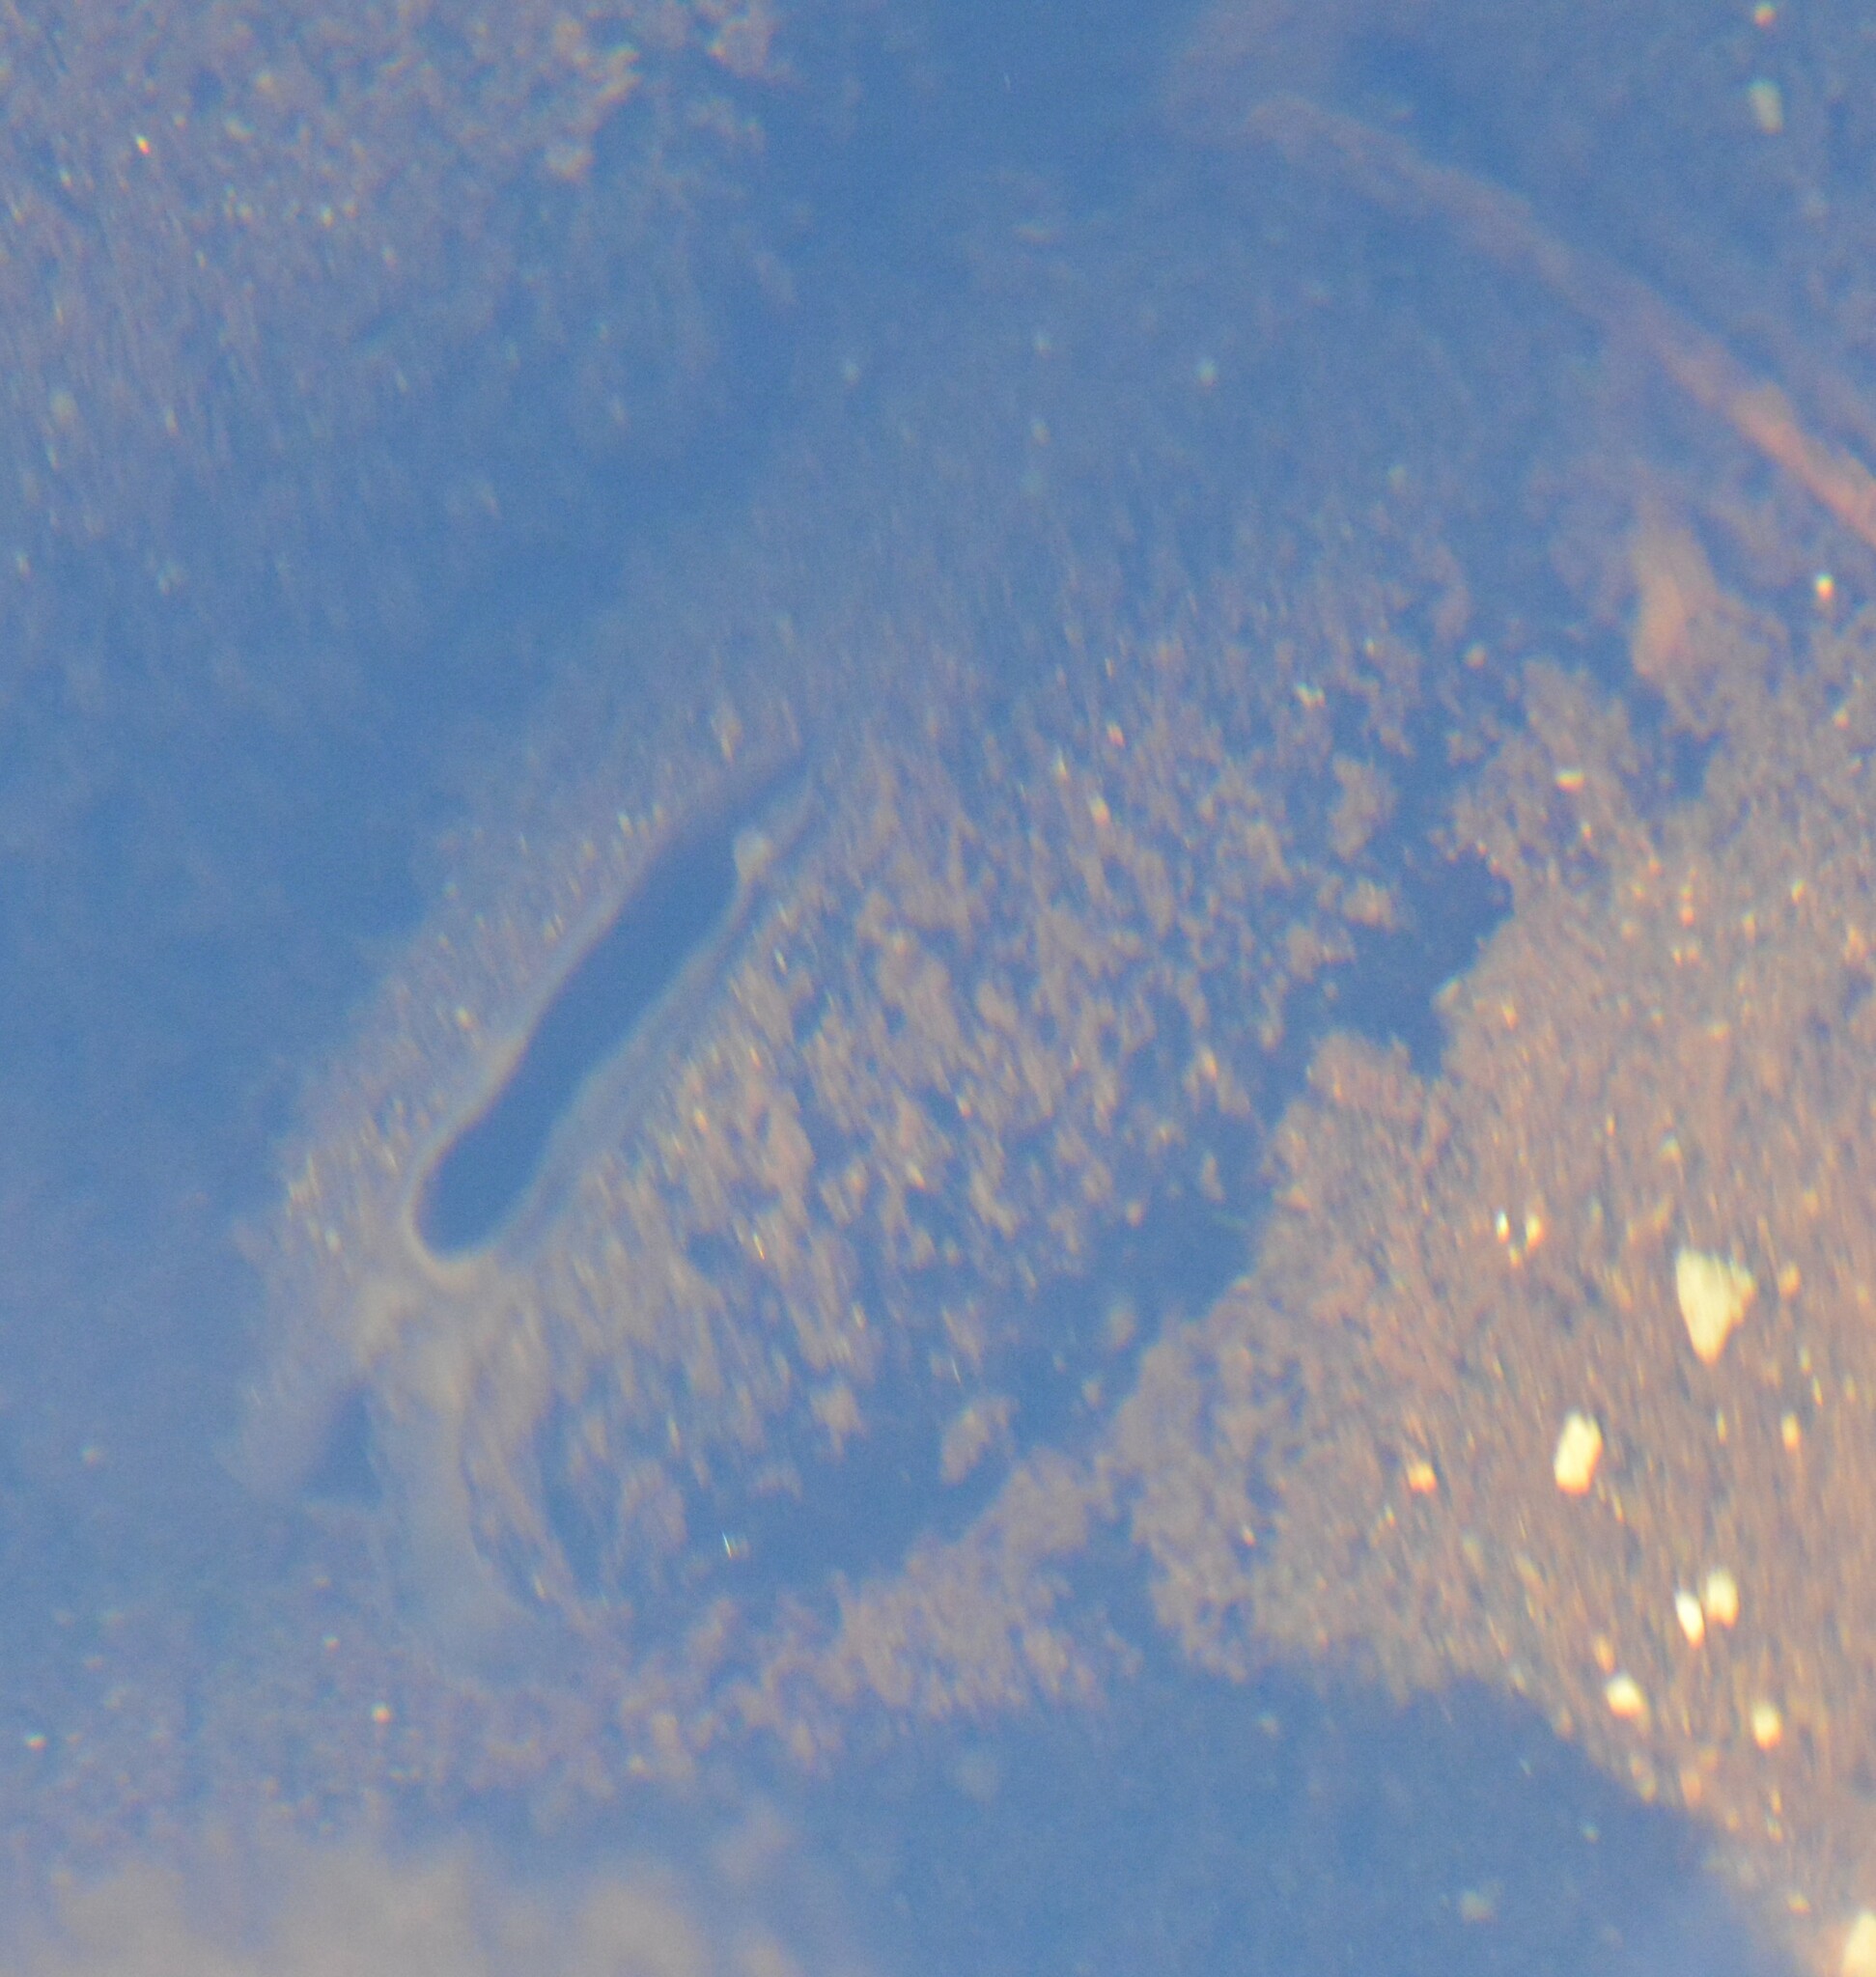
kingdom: Animalia
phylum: Mollusca
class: Bivalvia
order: Unionida
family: Margaritiferidae
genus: Margaritifera
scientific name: Margaritifera margaritifera
